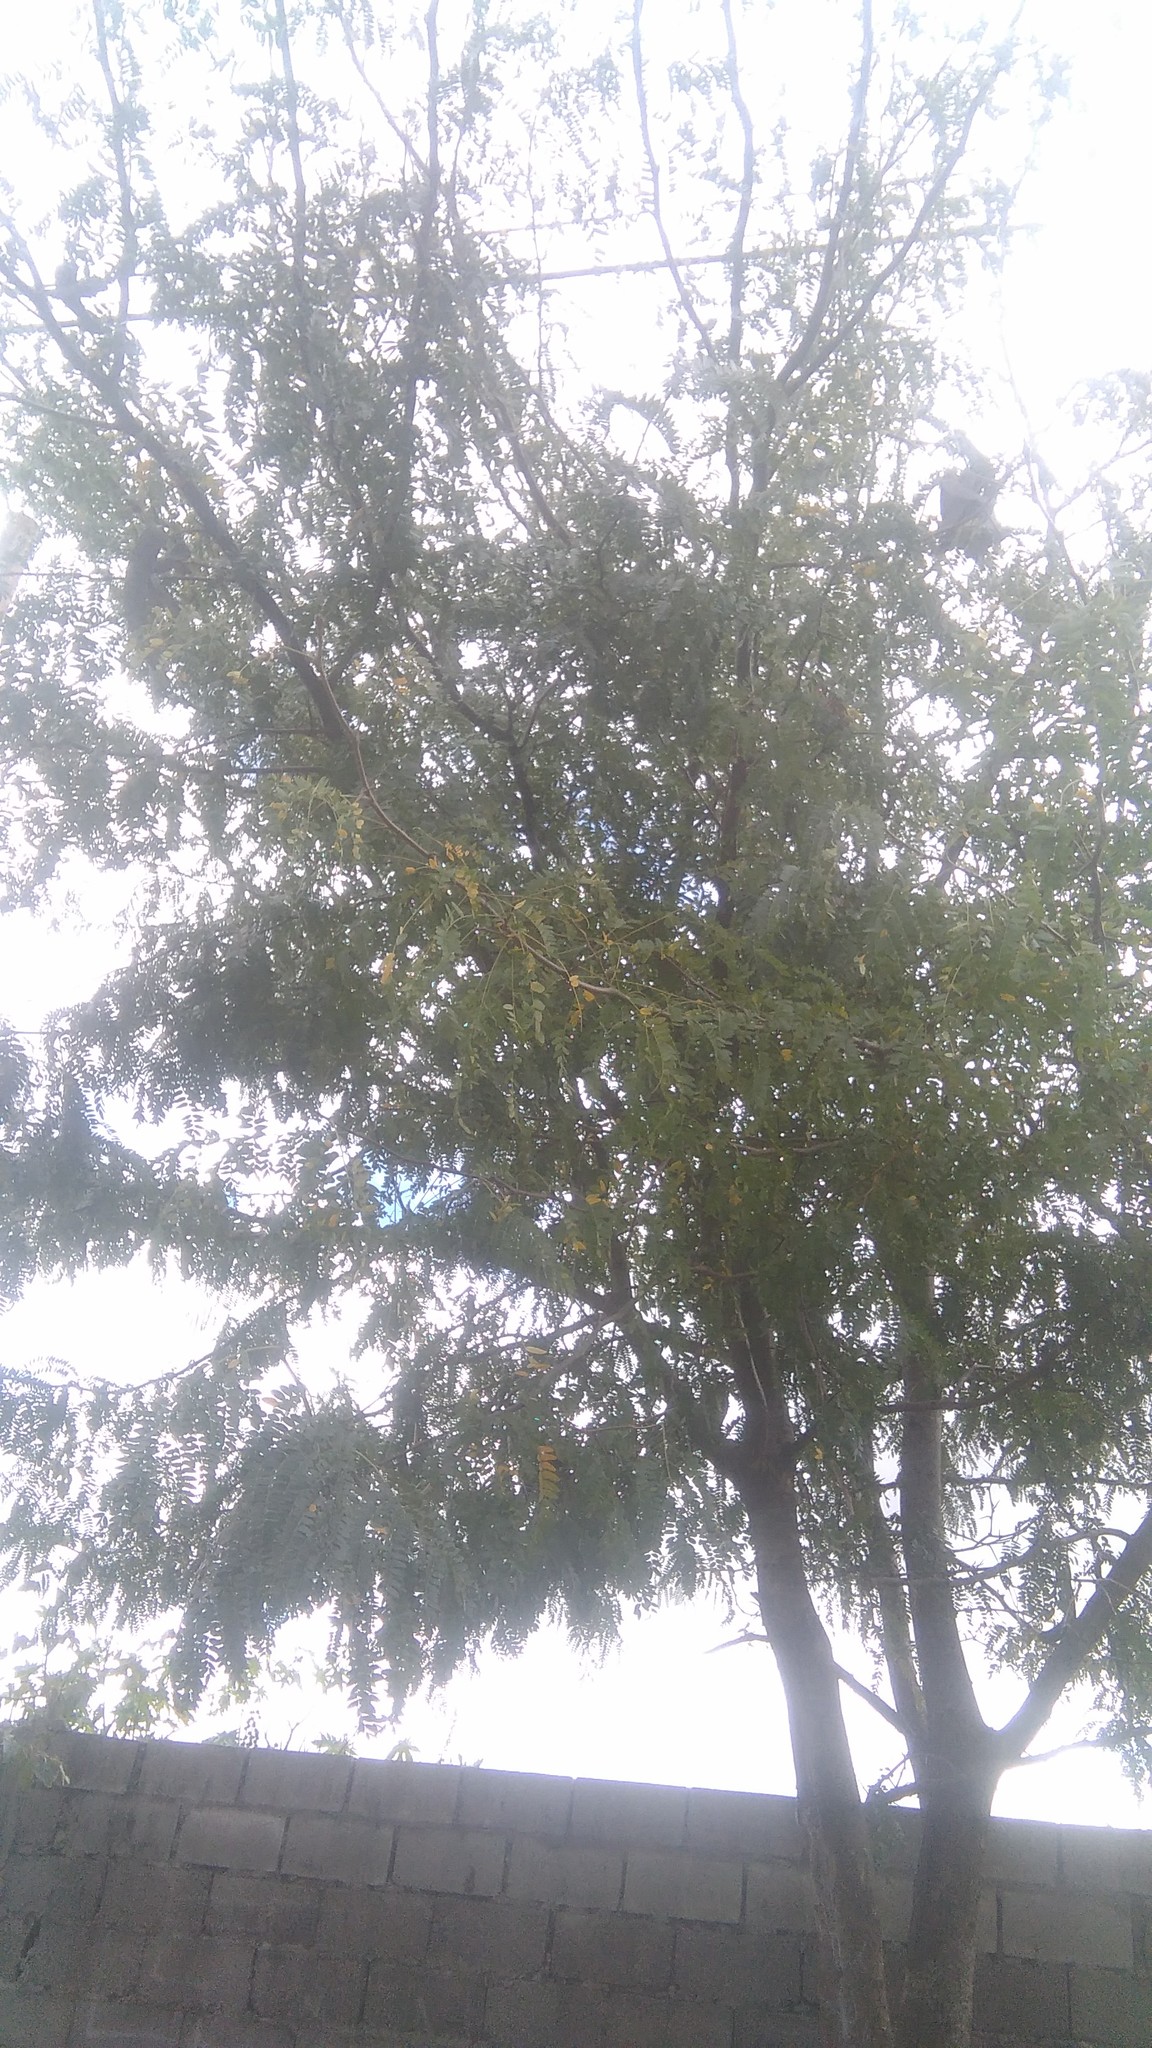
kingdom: Plantae
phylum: Tracheophyta
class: Magnoliopsida
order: Fabales
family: Fabaceae
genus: Gleditsia
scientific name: Gleditsia triacanthos
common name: Common honeylocust
